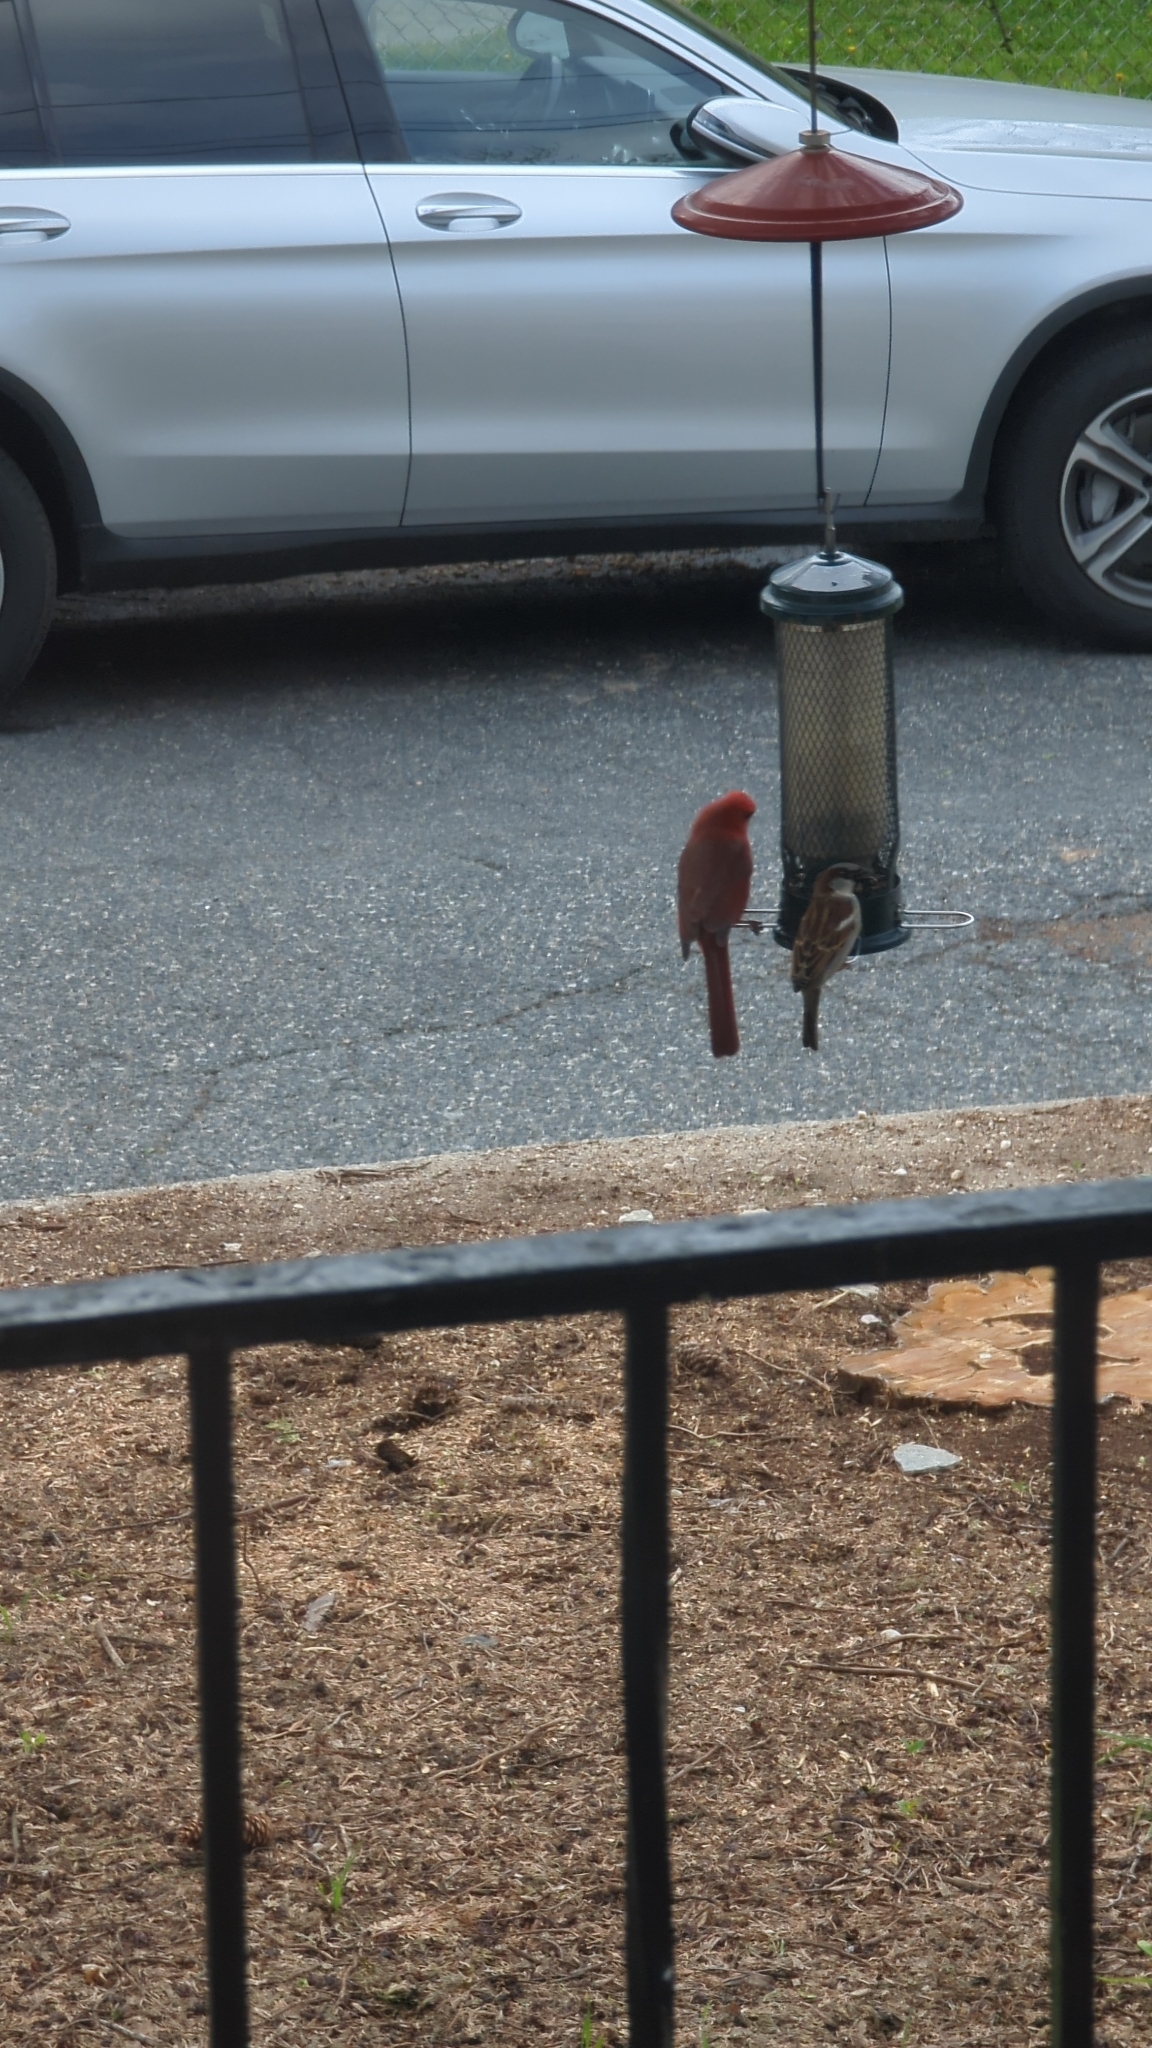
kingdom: Animalia
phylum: Chordata
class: Aves
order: Passeriformes
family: Cardinalidae
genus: Cardinalis
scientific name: Cardinalis cardinalis
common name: Northern cardinal
